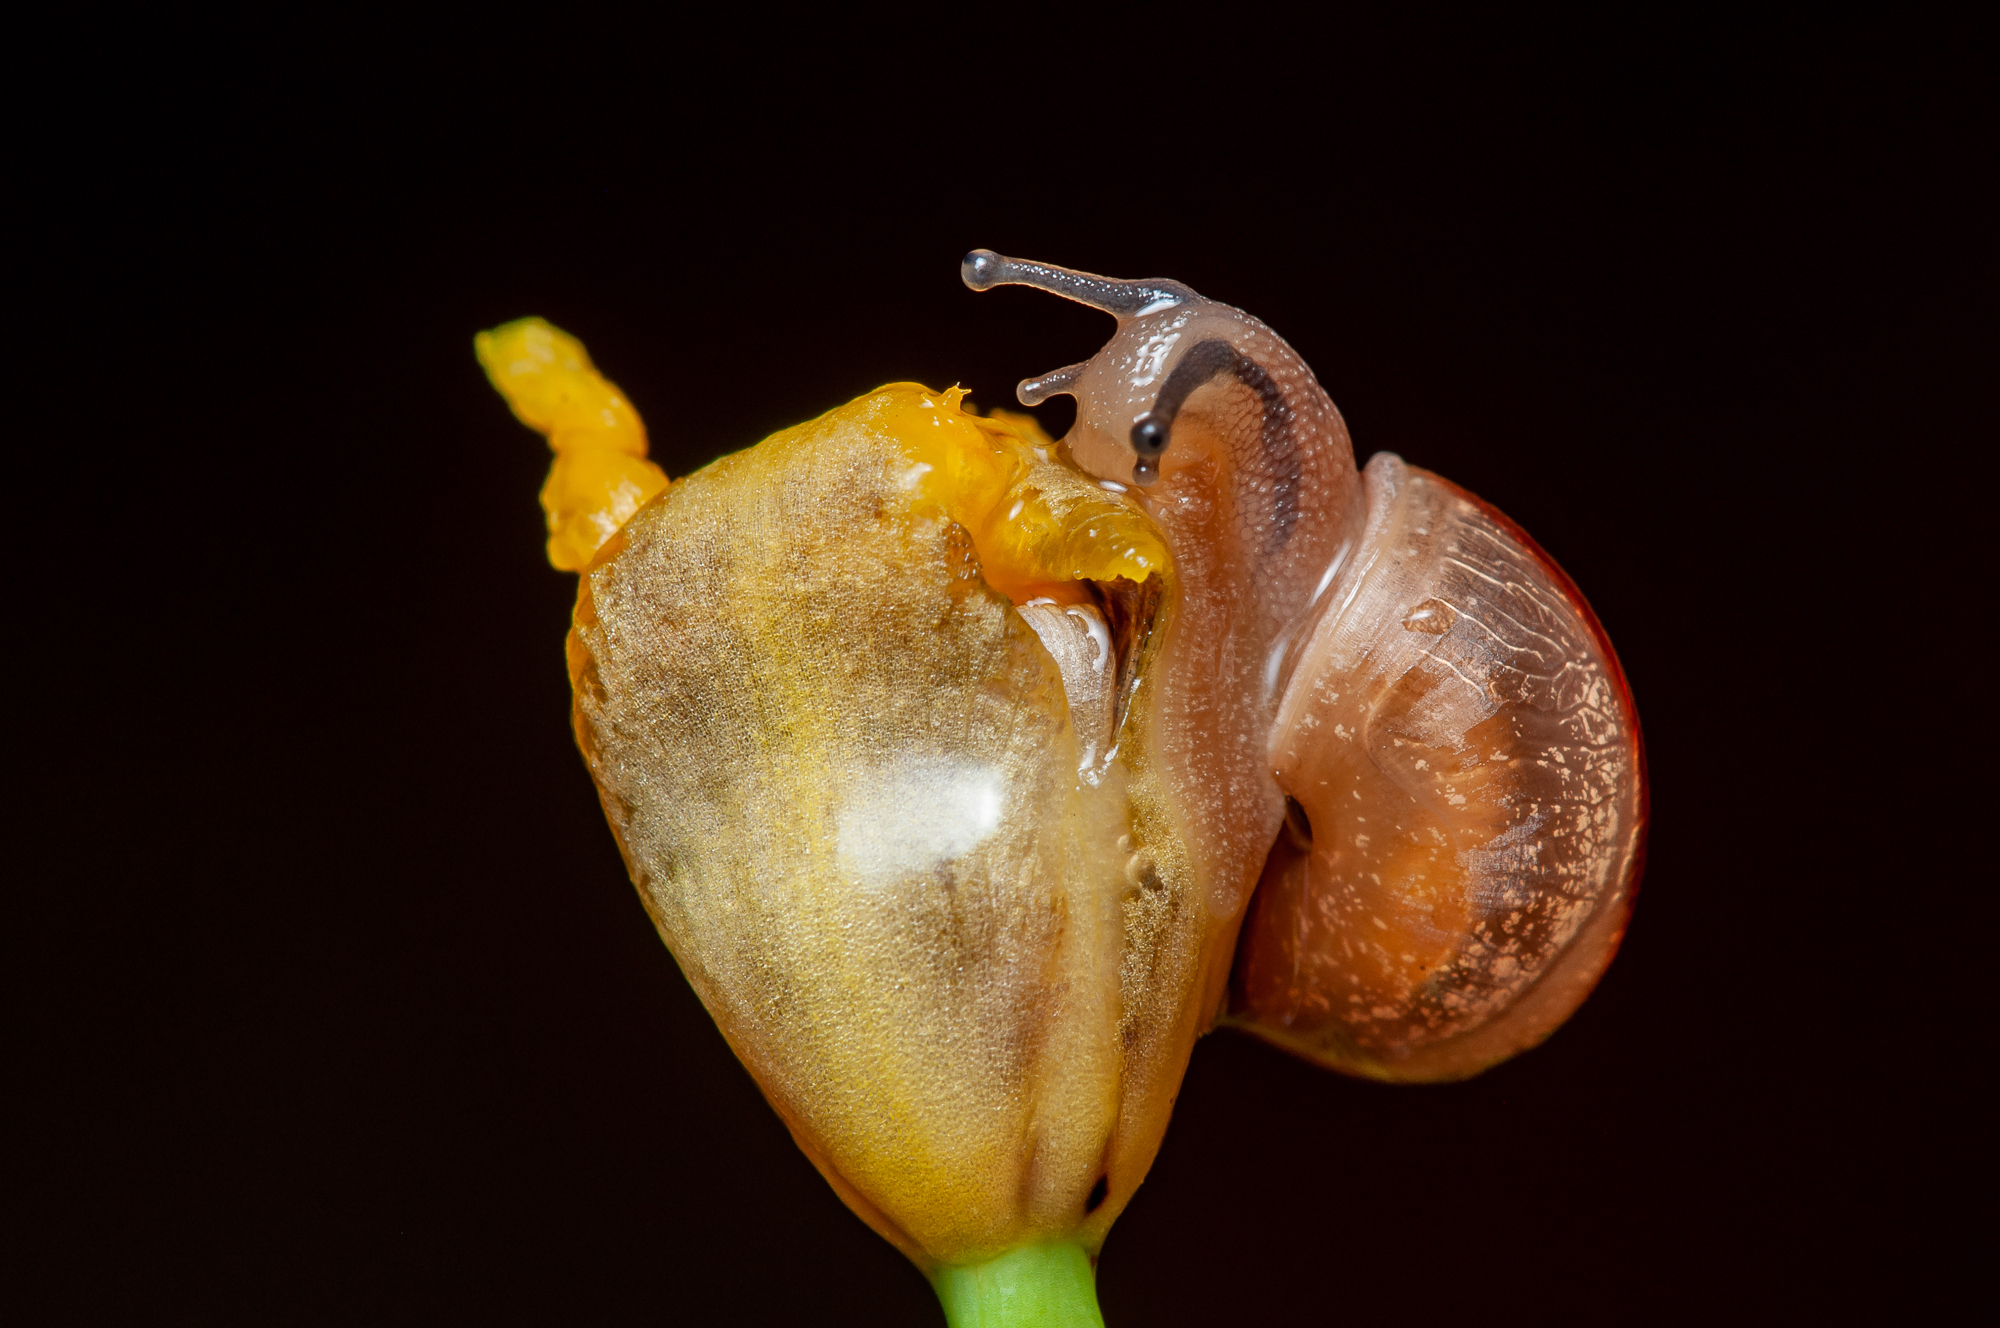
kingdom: Animalia
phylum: Mollusca
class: Gastropoda
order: Stylommatophora
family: Camaenidae
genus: Bradybaena
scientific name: Bradybaena similaris
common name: Asian trampsnail
